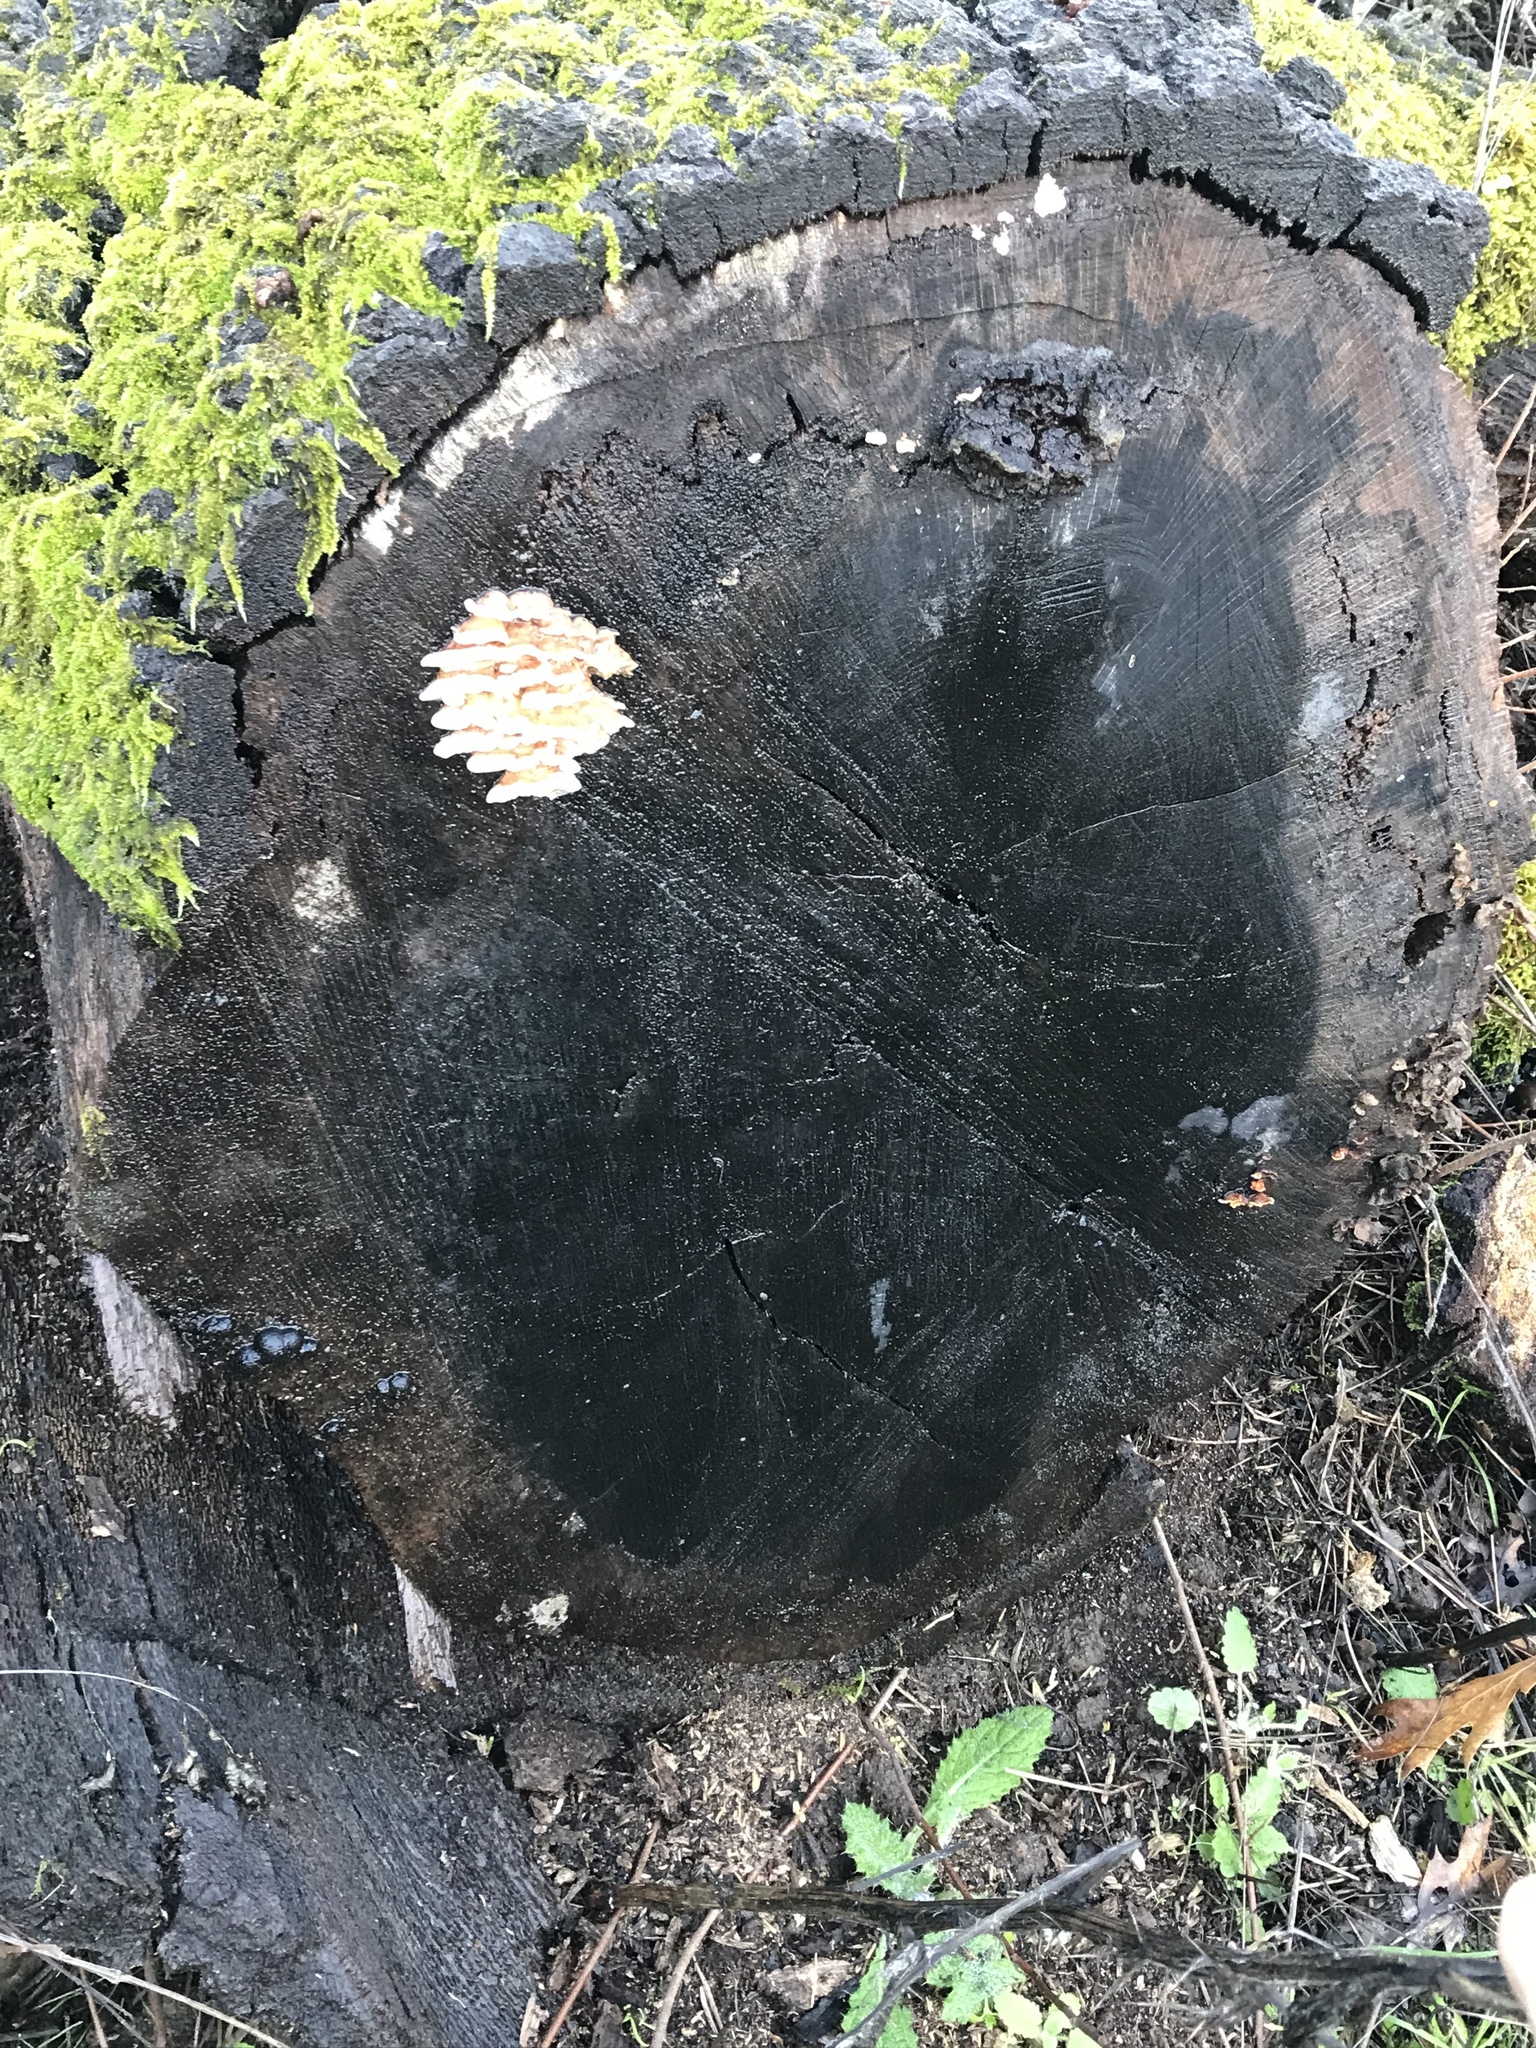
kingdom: Fungi
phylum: Basidiomycota
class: Agaricomycetes
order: Polyporales
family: Meruliaceae
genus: Phlebia
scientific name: Phlebia tremellosa
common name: Jelly rot
